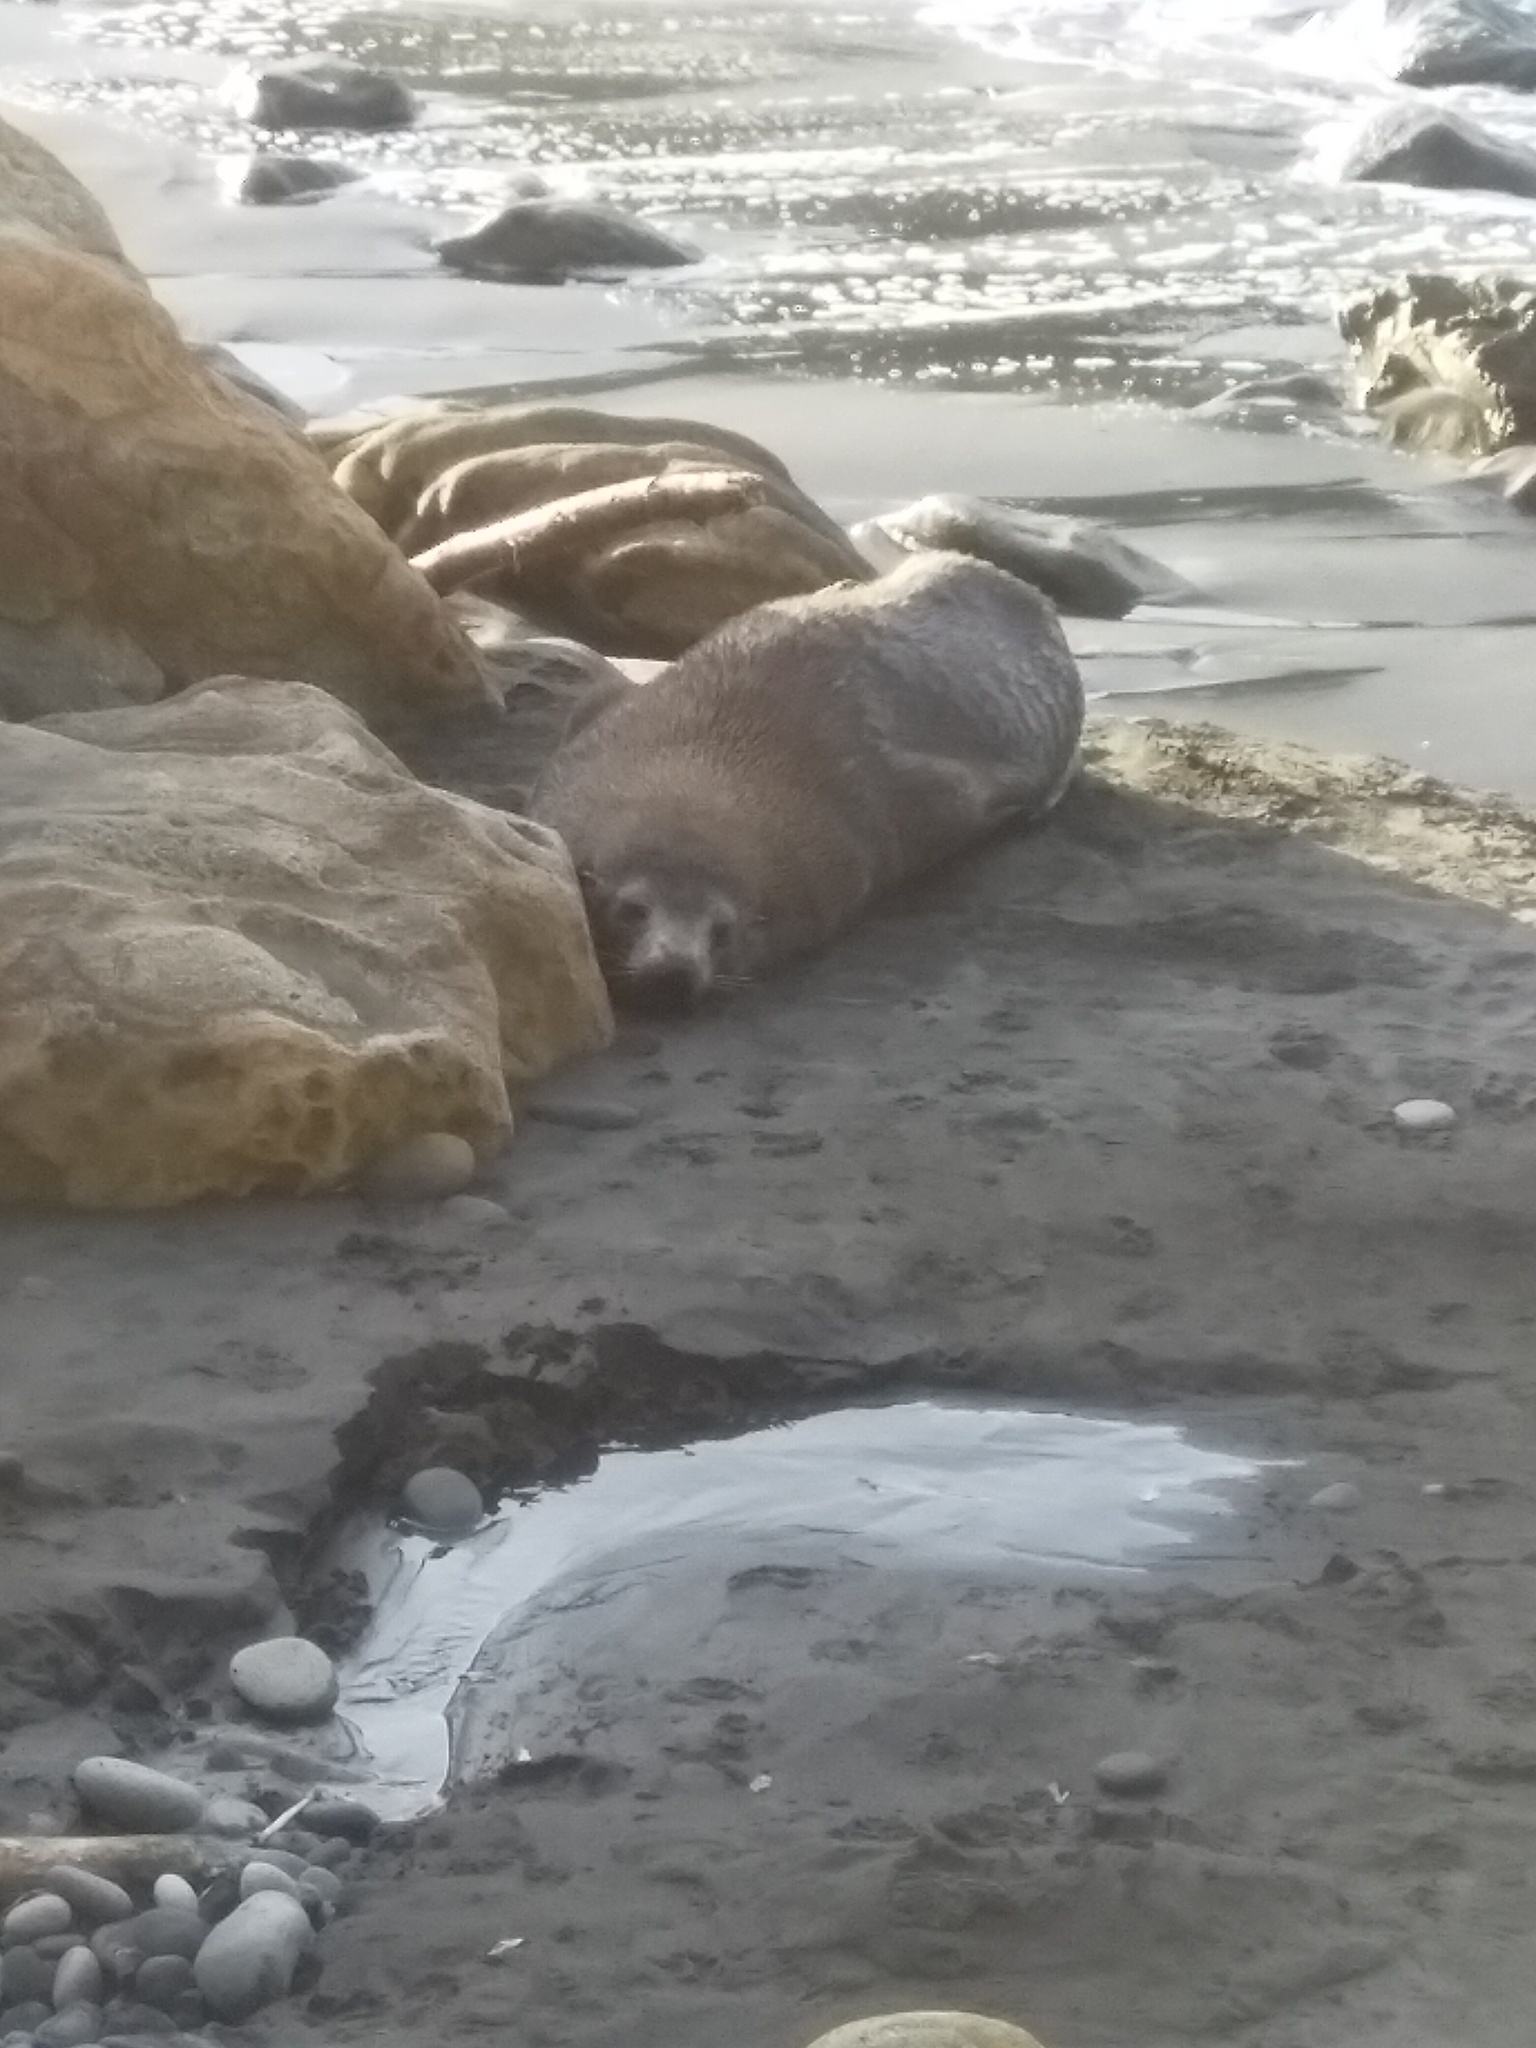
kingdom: Animalia
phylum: Chordata
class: Mammalia
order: Carnivora
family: Otariidae
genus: Arctocephalus
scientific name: Arctocephalus forsteri
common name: New zealand fur seal
